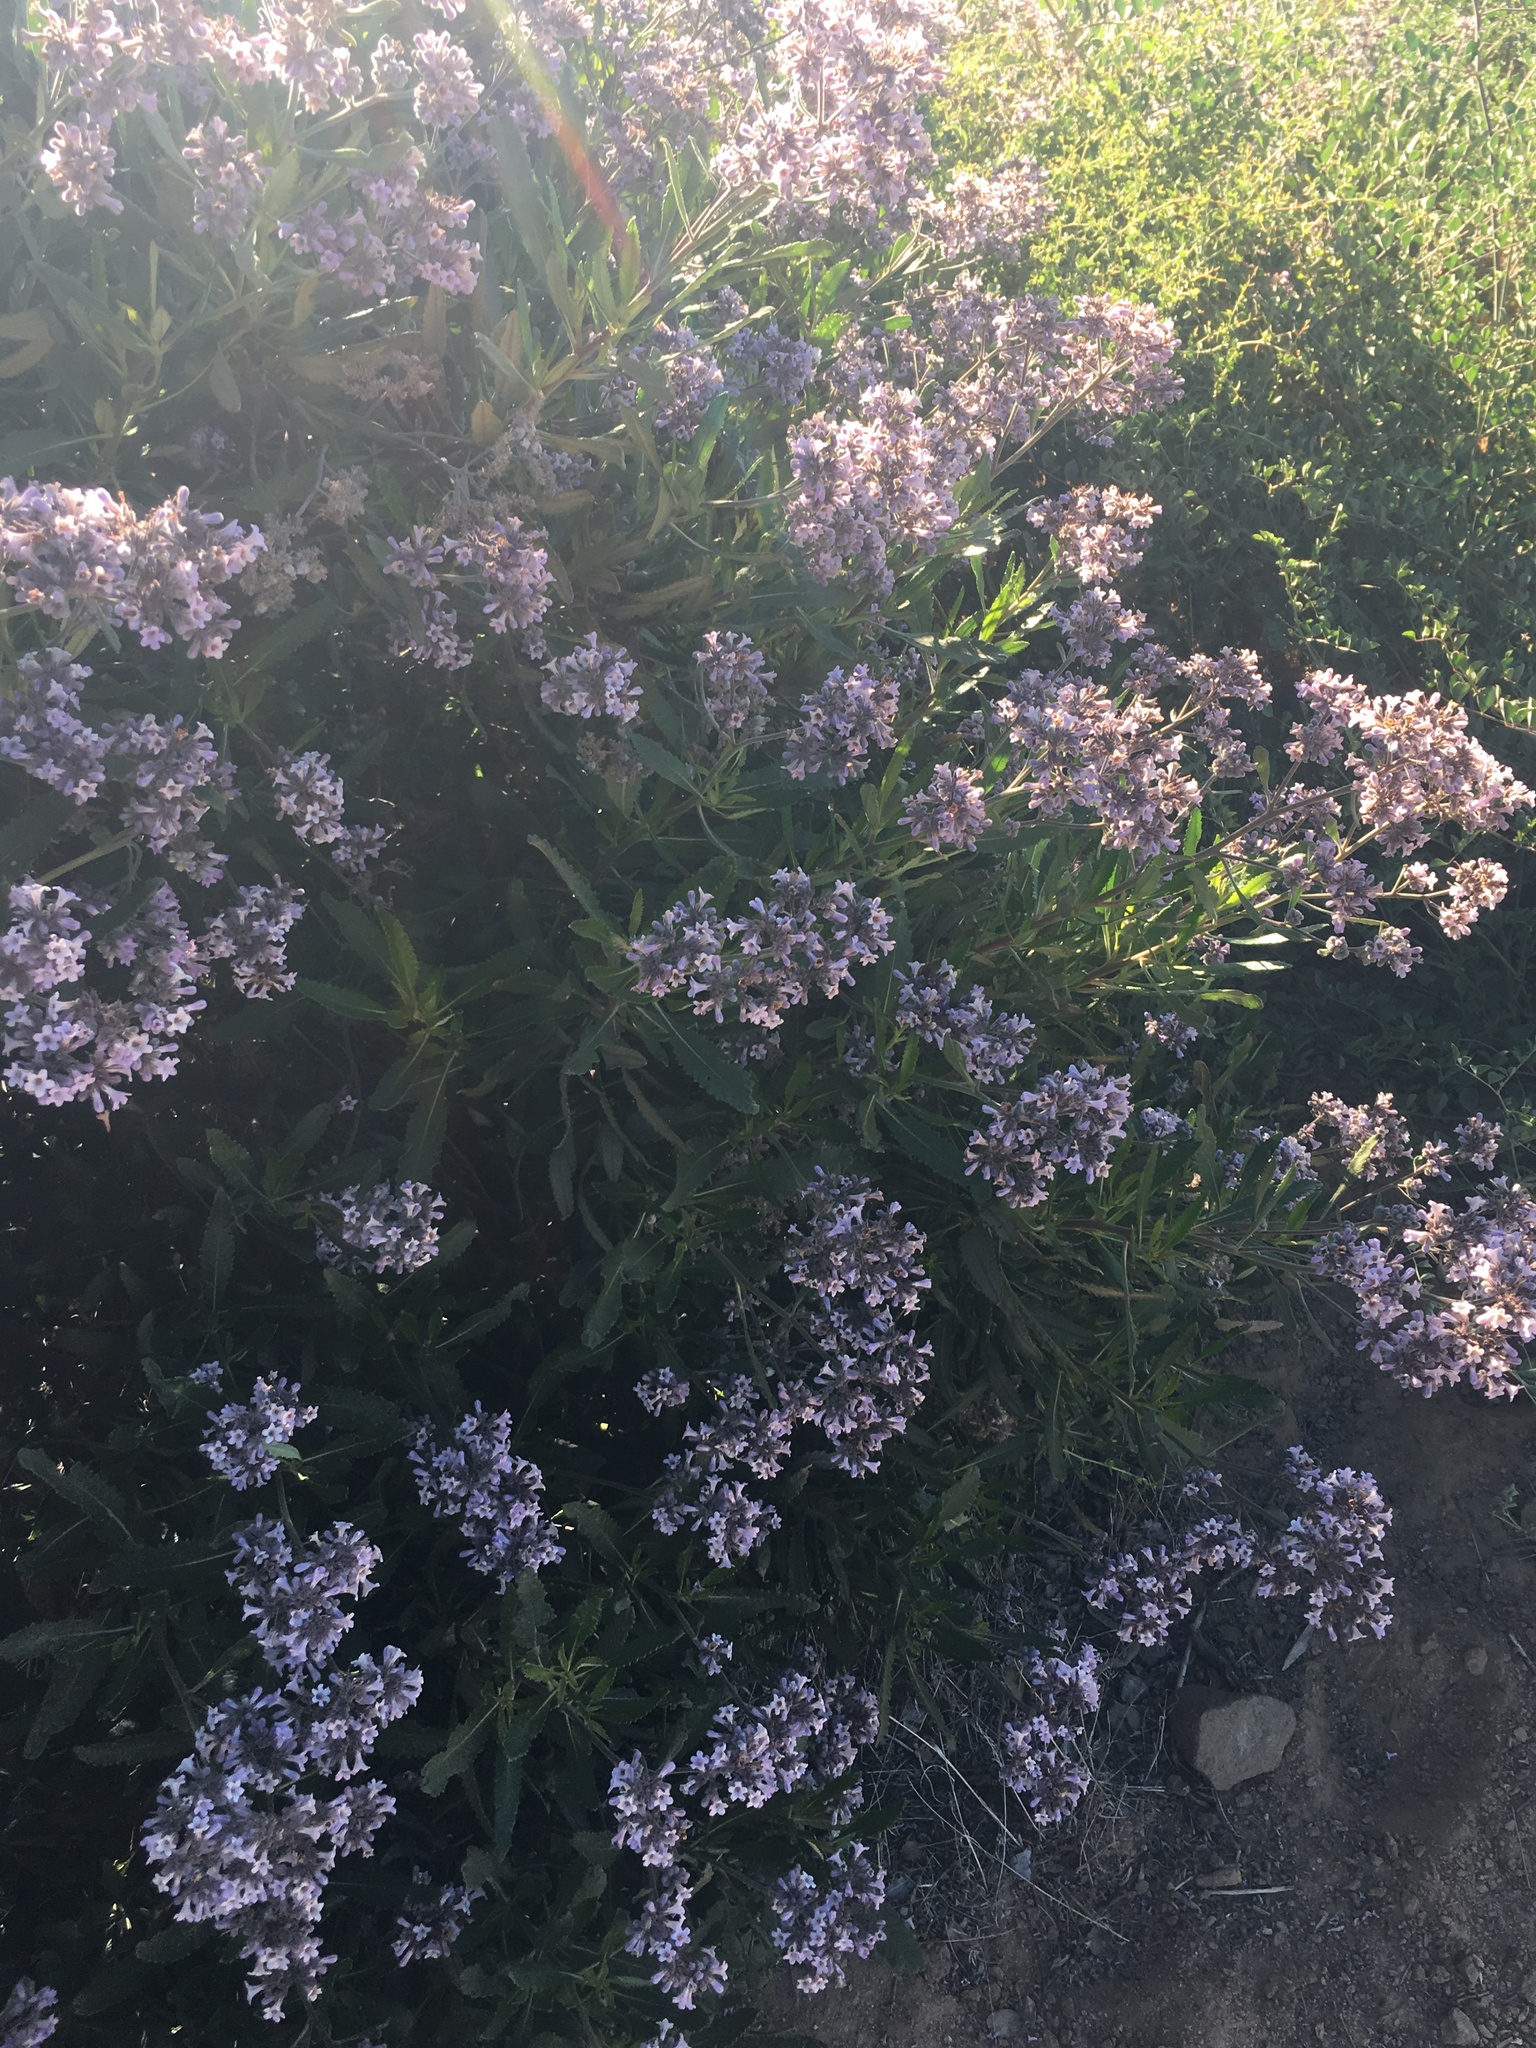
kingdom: Plantae
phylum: Tracheophyta
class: Magnoliopsida
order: Boraginales
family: Namaceae
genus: Eriodictyon
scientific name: Eriodictyon crassifolium
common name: Thick-leaf yerba-santa
